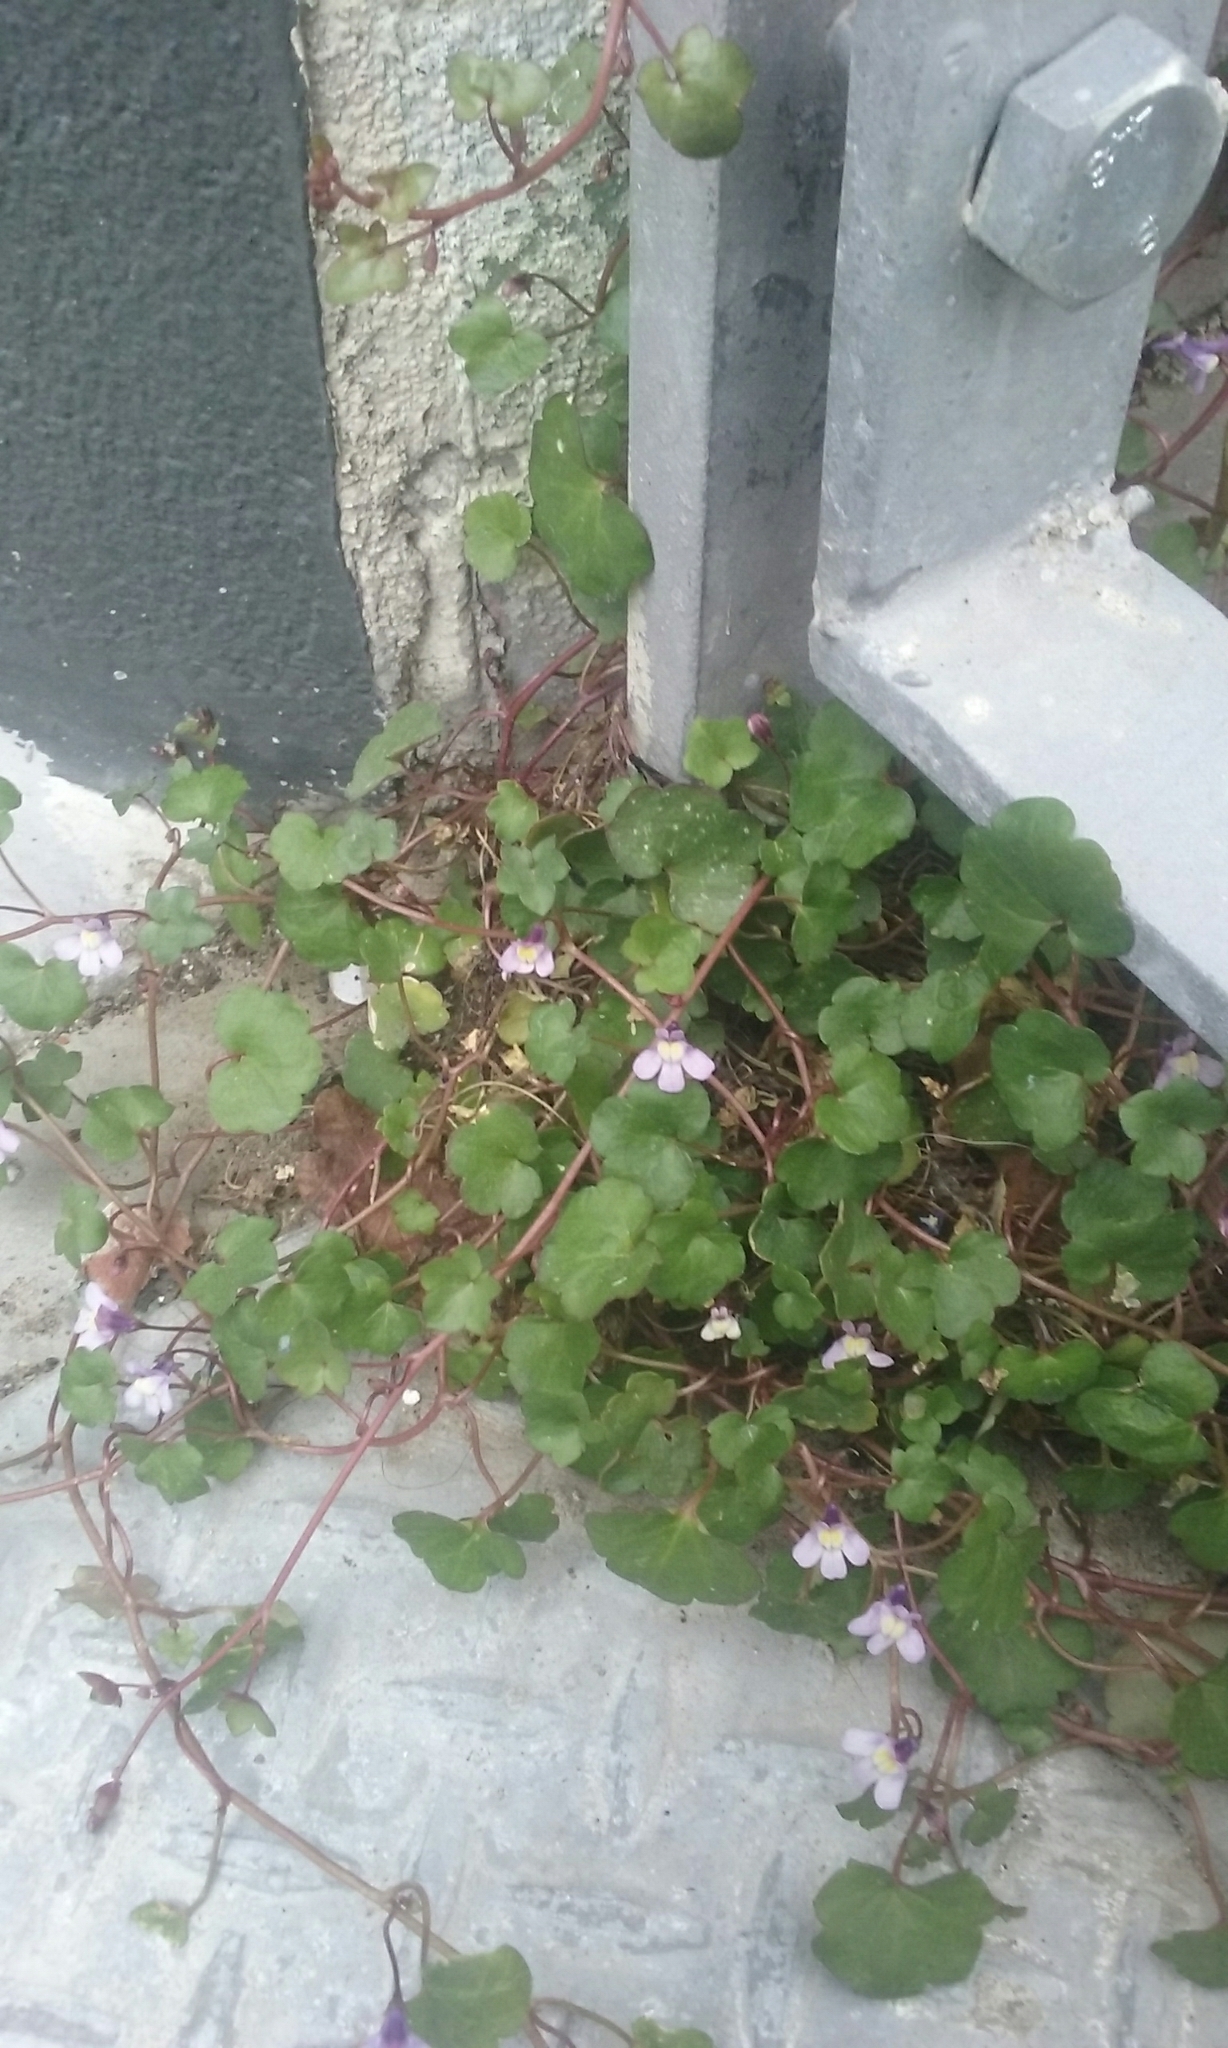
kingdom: Plantae
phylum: Tracheophyta
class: Magnoliopsida
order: Lamiales
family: Plantaginaceae
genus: Cymbalaria
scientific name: Cymbalaria muralis
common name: Ivy-leaved toadflax
